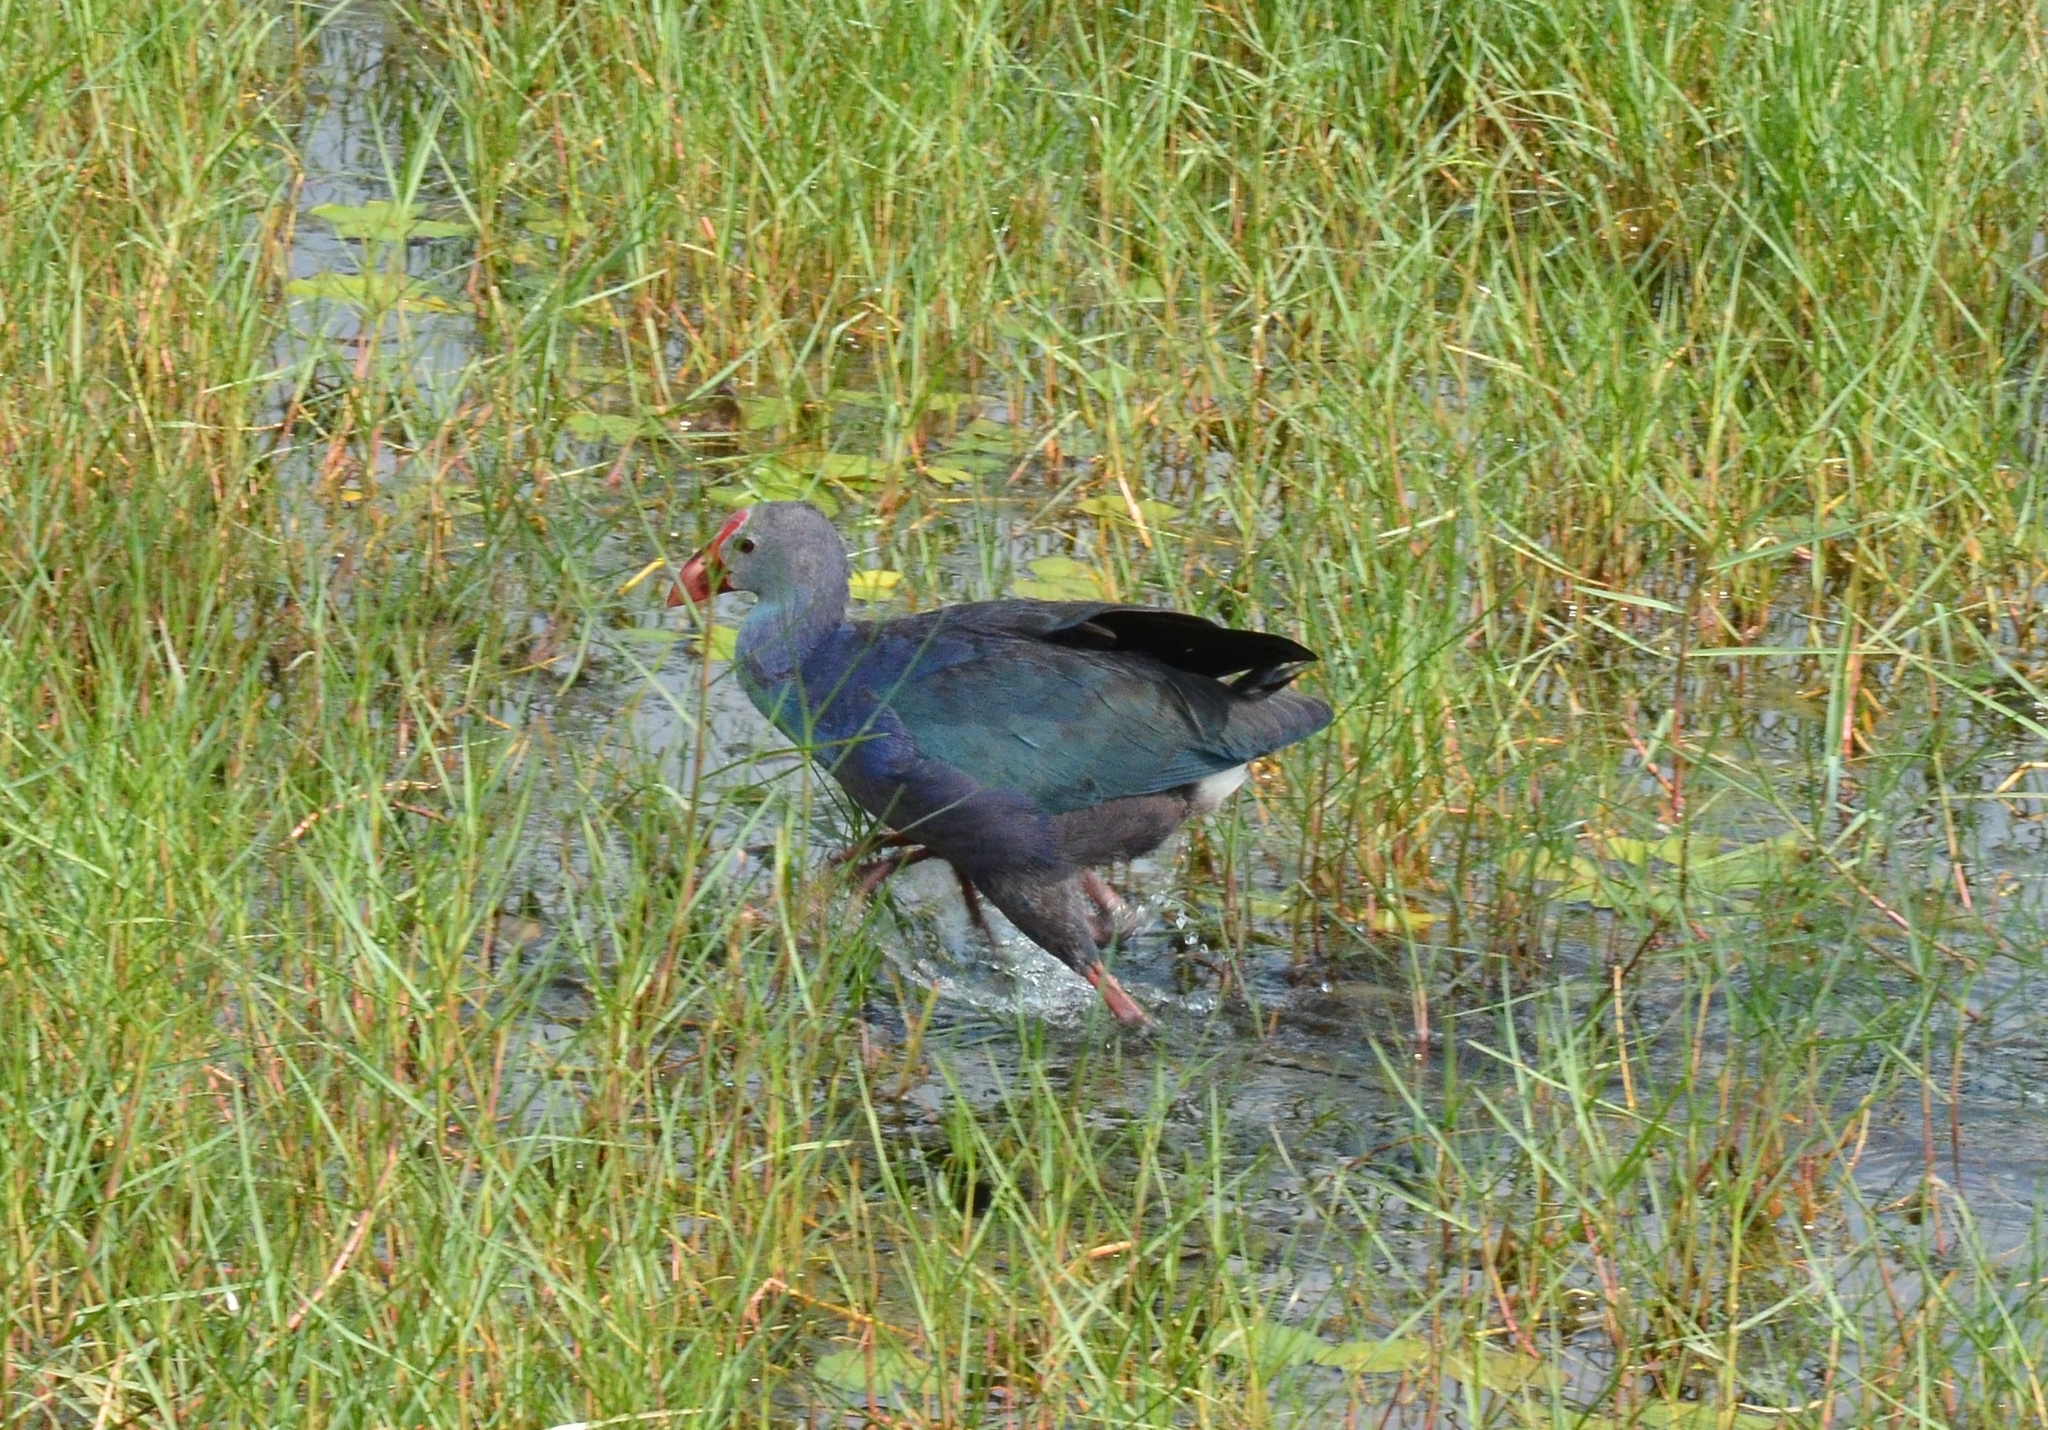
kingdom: Animalia
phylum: Chordata
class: Aves
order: Gruiformes
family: Rallidae
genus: Porphyrio
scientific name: Porphyrio porphyrio
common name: Purple swamphen
